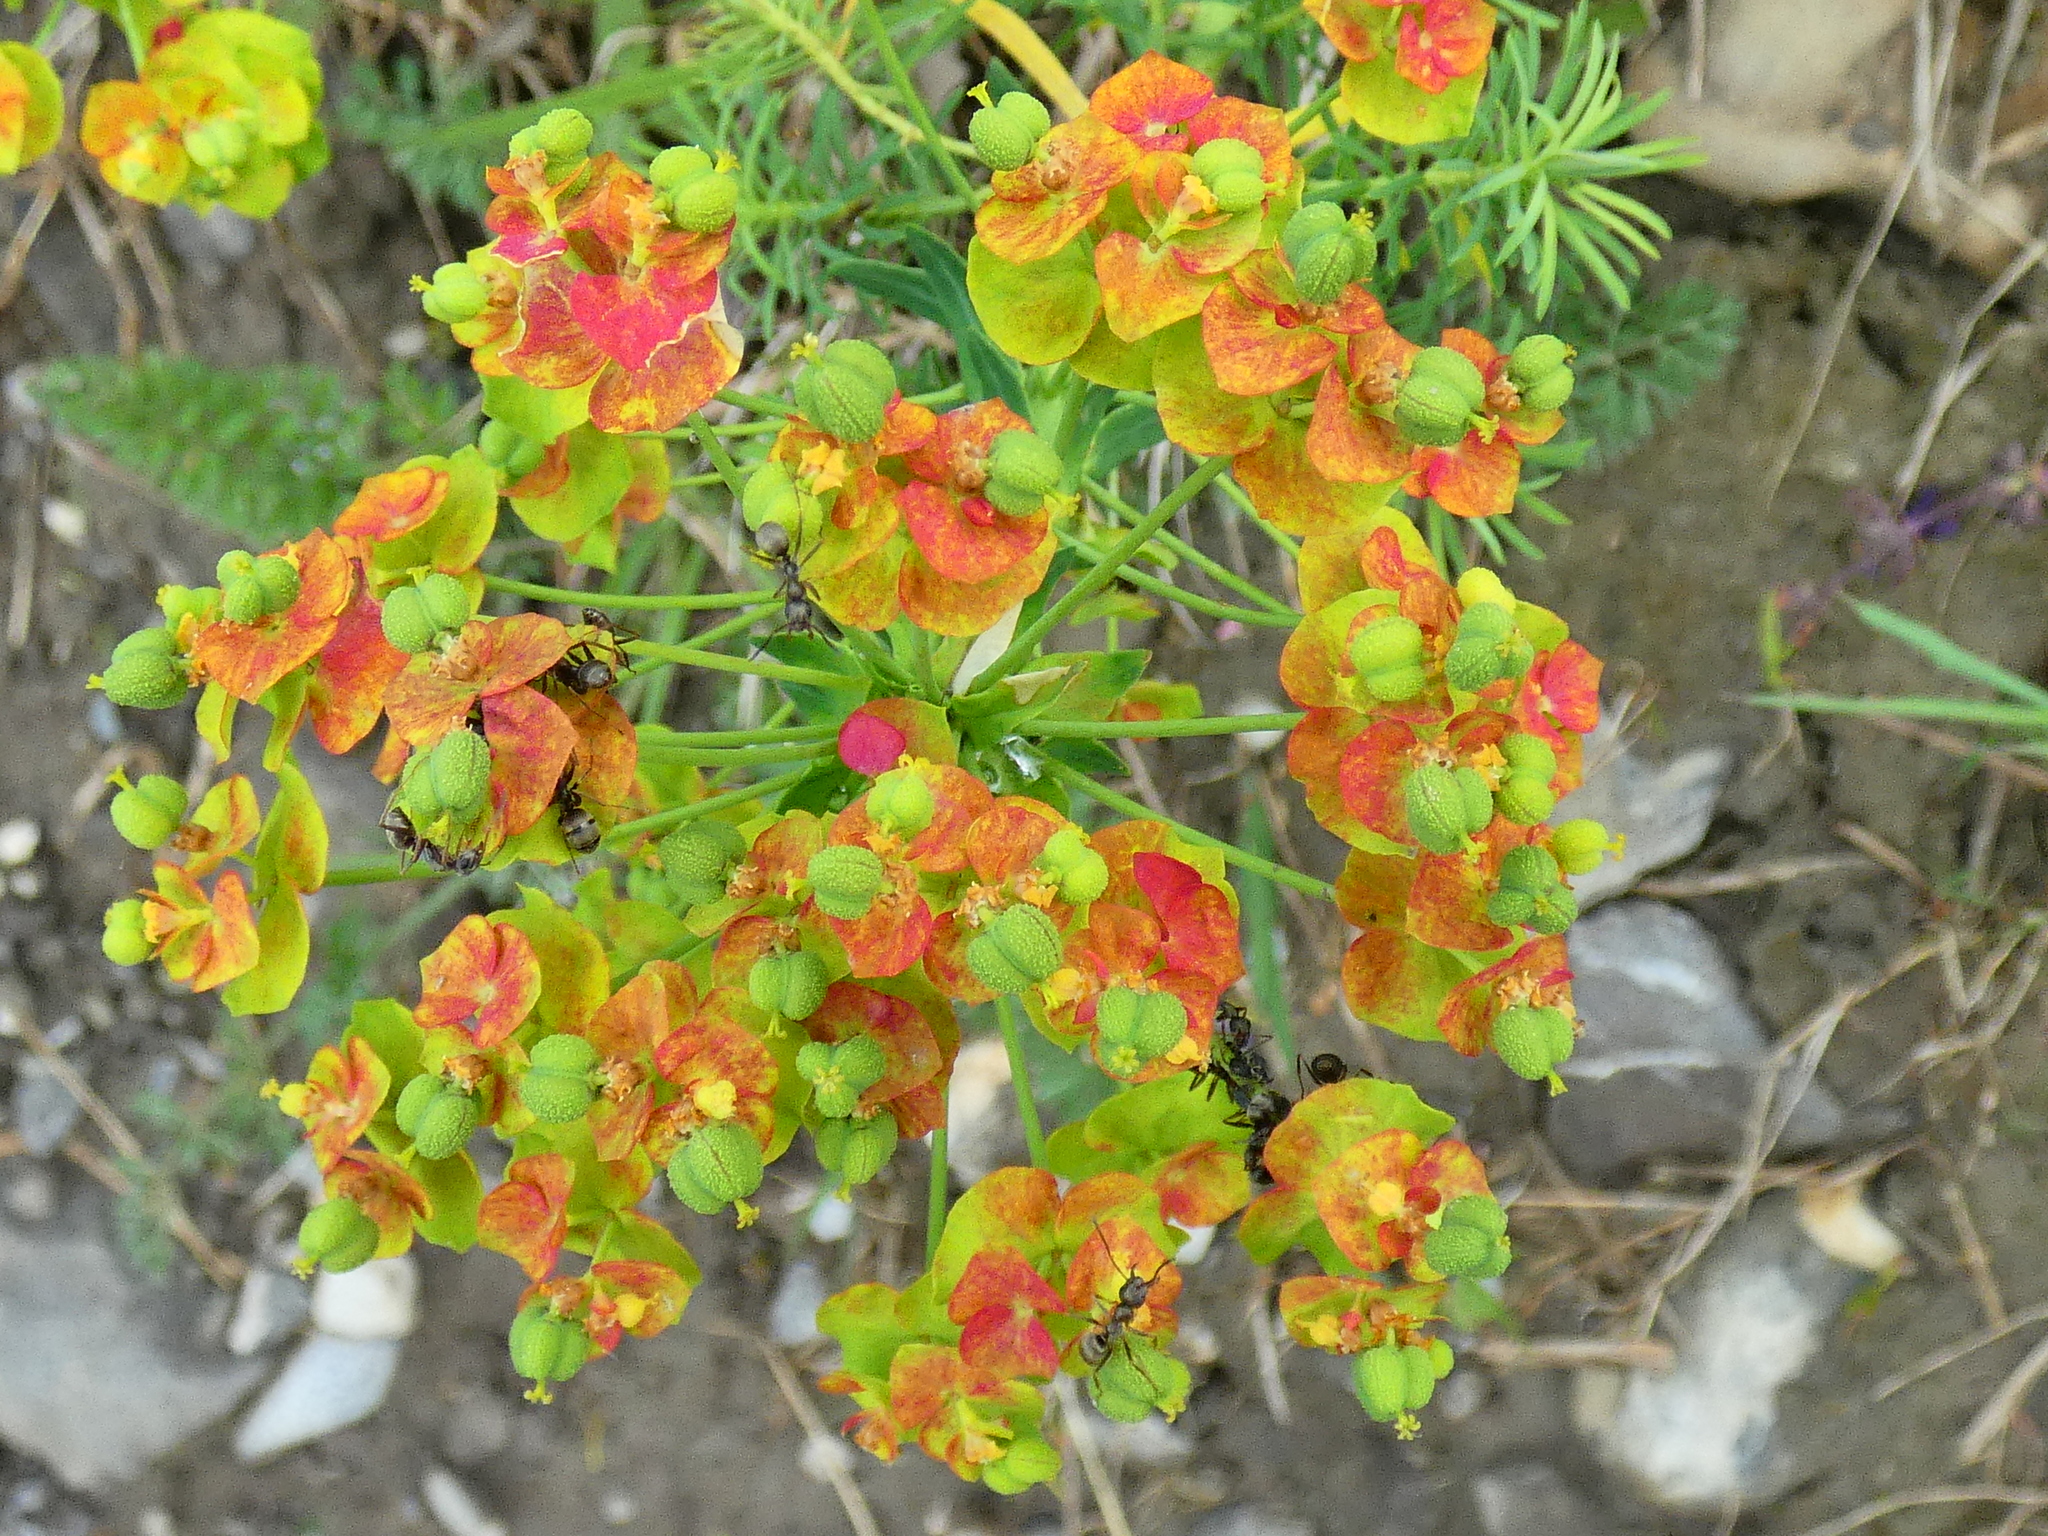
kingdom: Plantae
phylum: Tracheophyta
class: Magnoliopsida
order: Malpighiales
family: Euphorbiaceae
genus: Euphorbia
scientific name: Euphorbia cyparissias
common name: Cypress spurge
